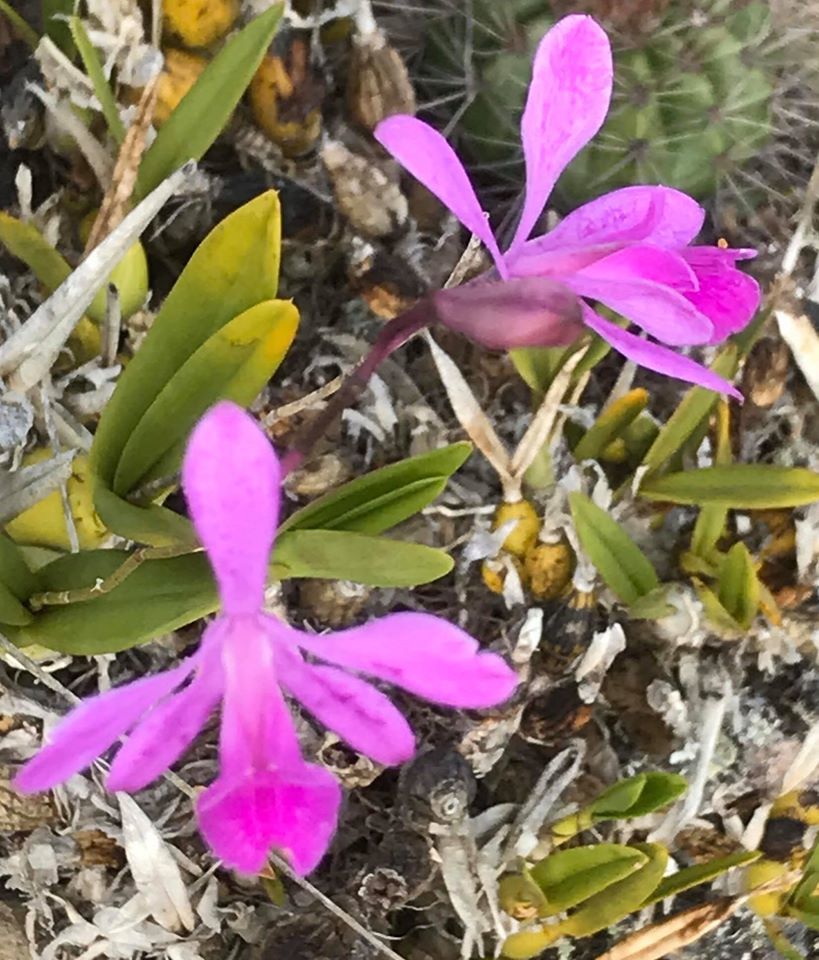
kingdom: Plantae
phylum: Tracheophyta
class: Liliopsida
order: Asparagales
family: Orchidaceae
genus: Encyclia
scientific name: Encyclia jenischiana
